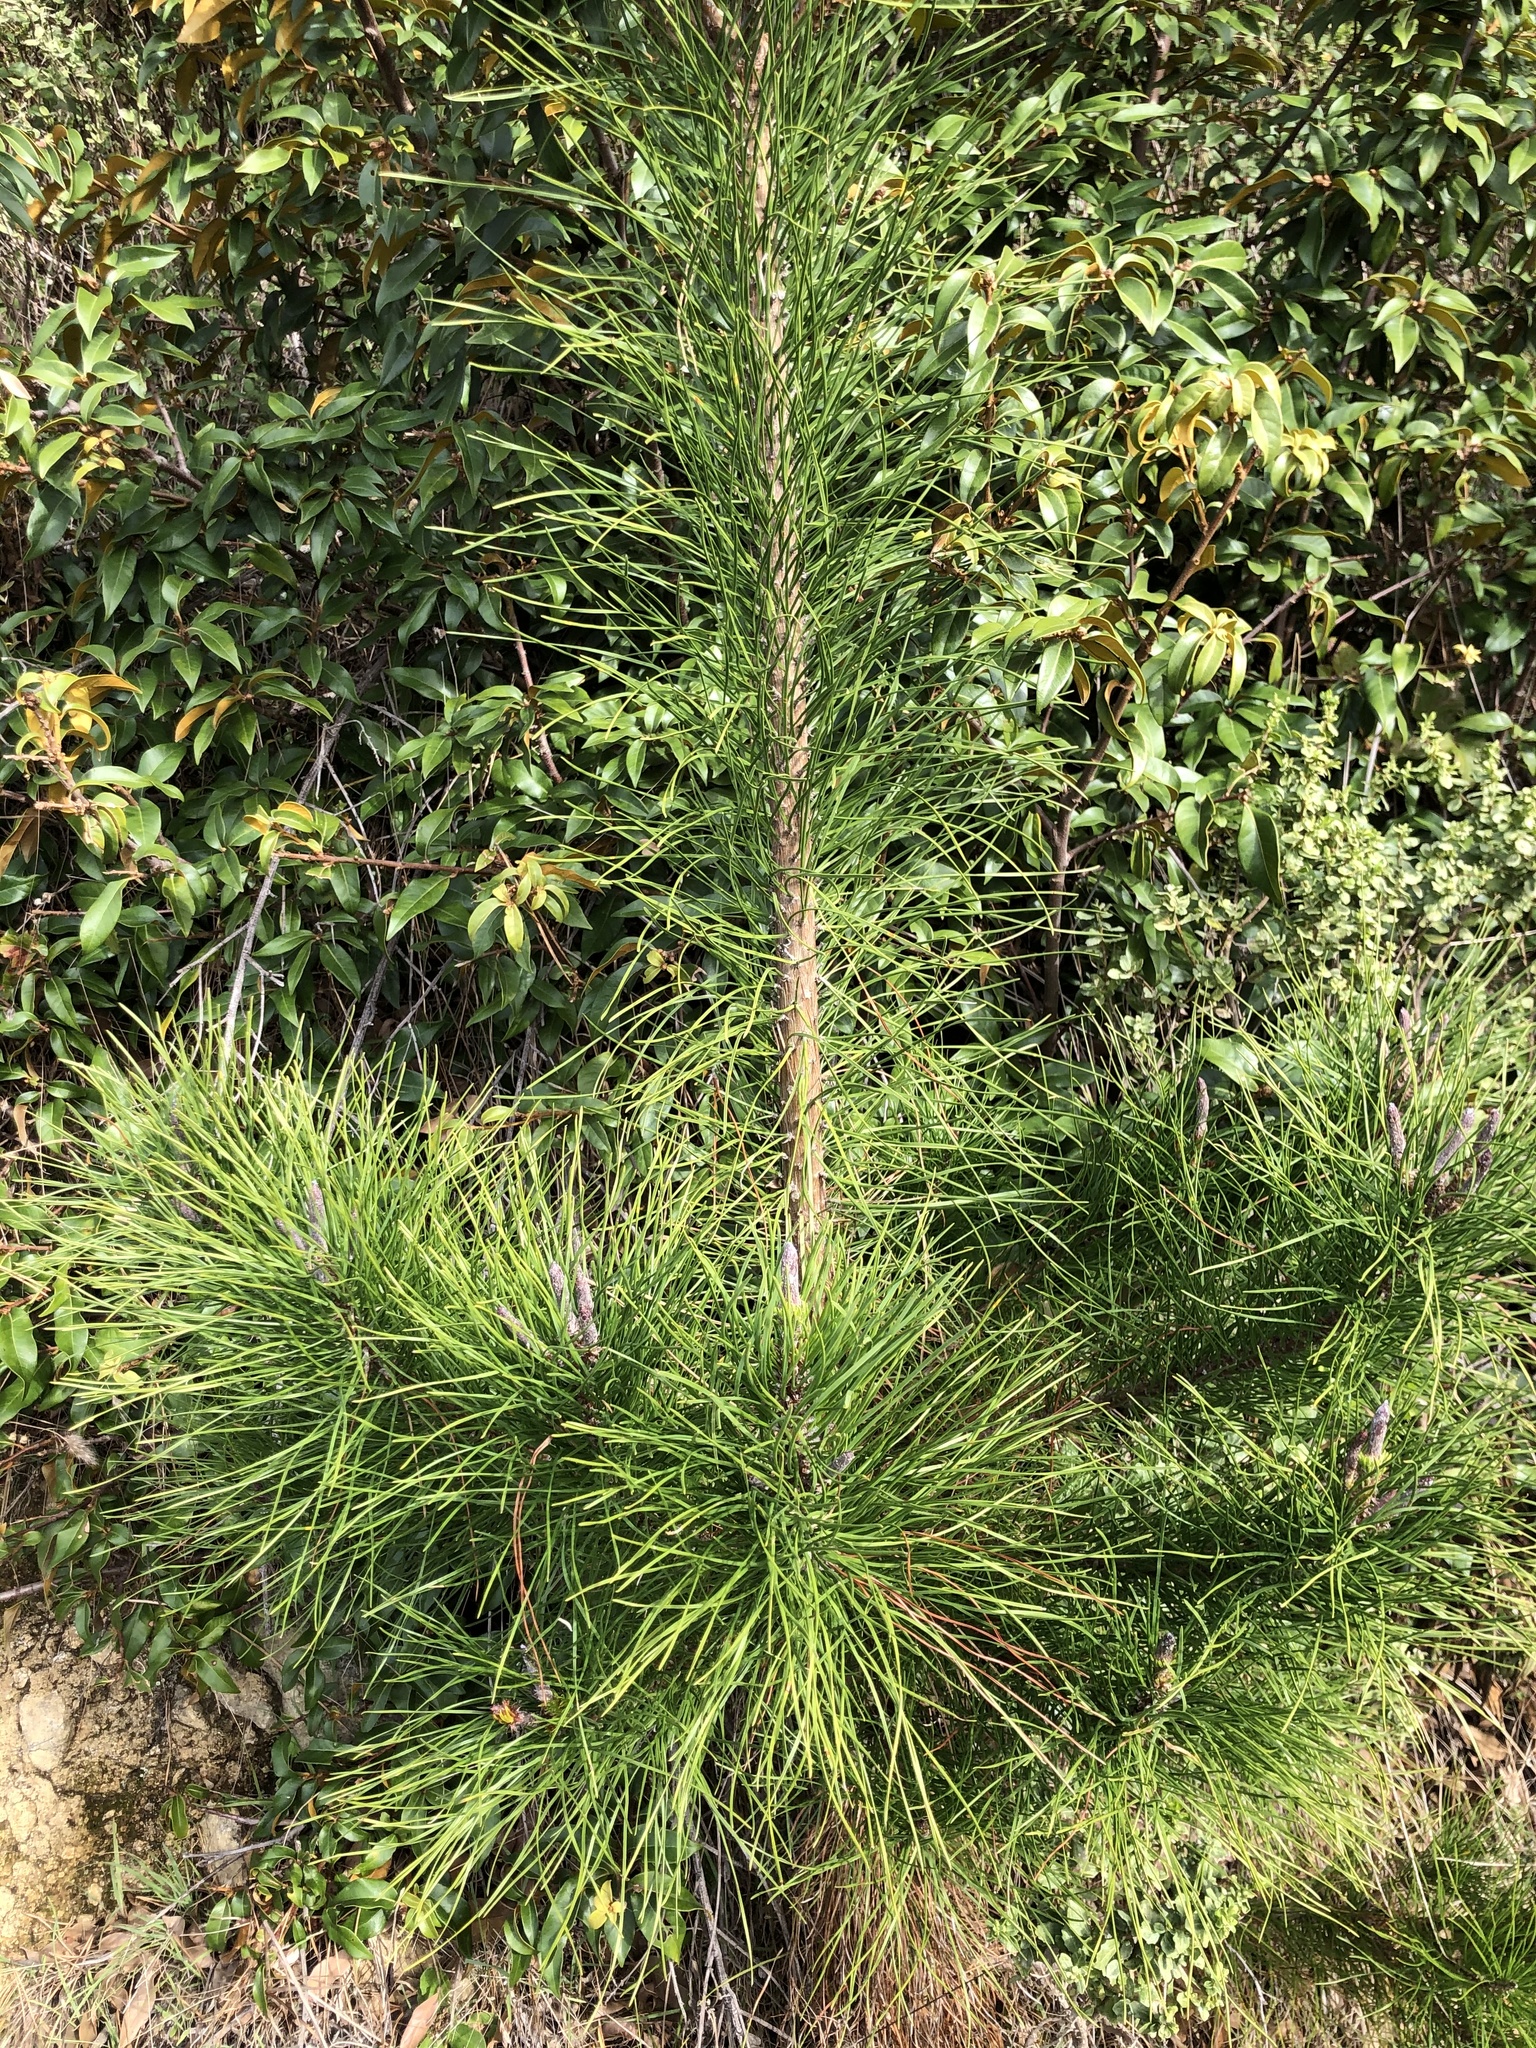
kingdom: Plantae
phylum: Tracheophyta
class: Pinopsida
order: Pinales
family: Pinaceae
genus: Pinus
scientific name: Pinus muricata
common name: Bishop pine
